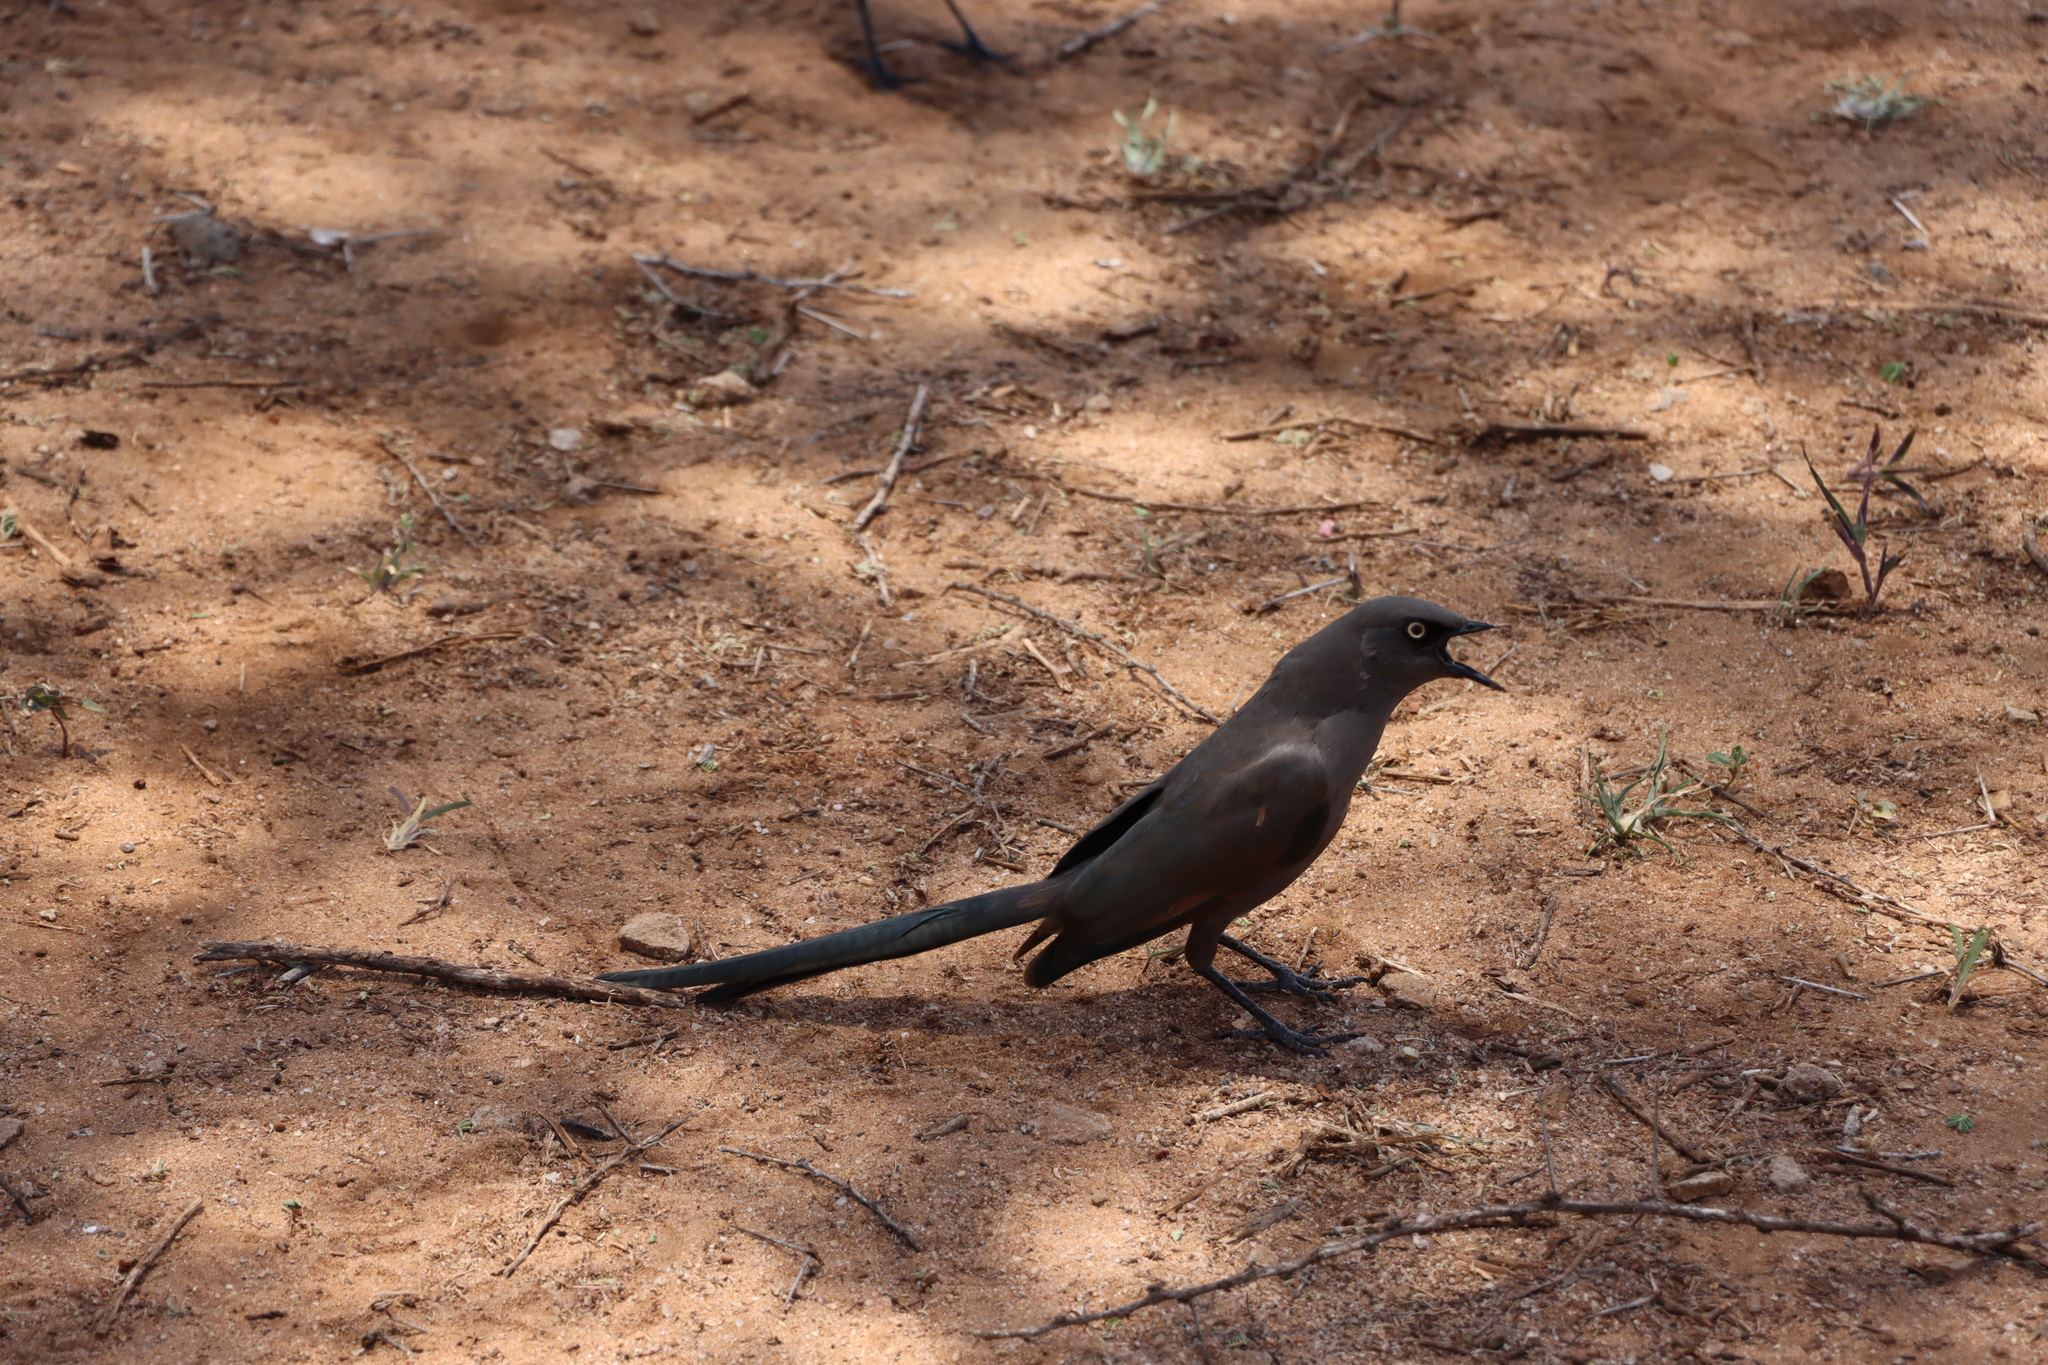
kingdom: Animalia
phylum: Chordata
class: Aves
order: Passeriformes
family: Sturnidae
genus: Lamprotornis
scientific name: Lamprotornis unicolor
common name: Ashy starling
